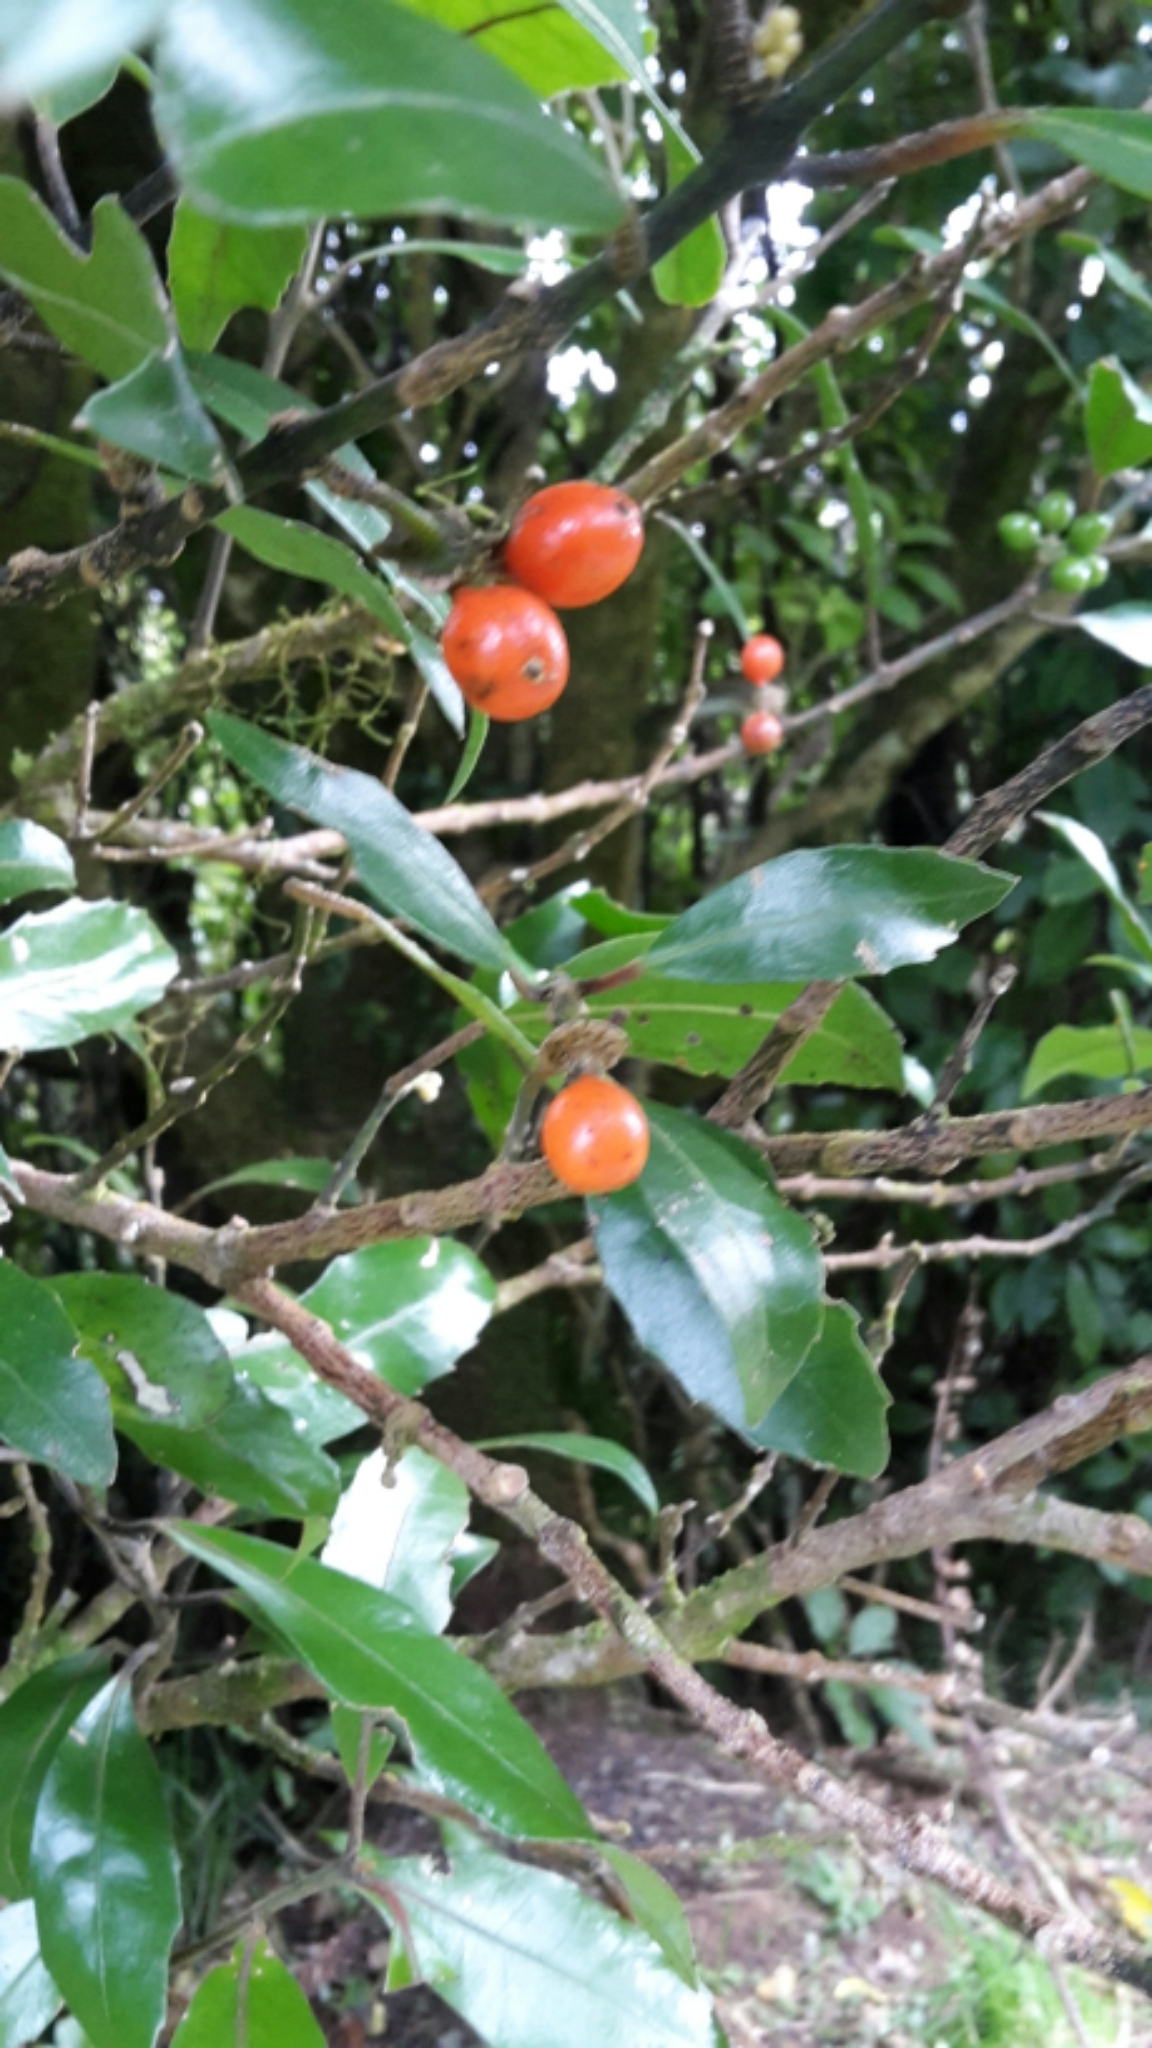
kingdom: Plantae
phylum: Tracheophyta
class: Magnoliopsida
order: Laurales
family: Monimiaceae
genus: Hedycarya
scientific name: Hedycarya arborea
